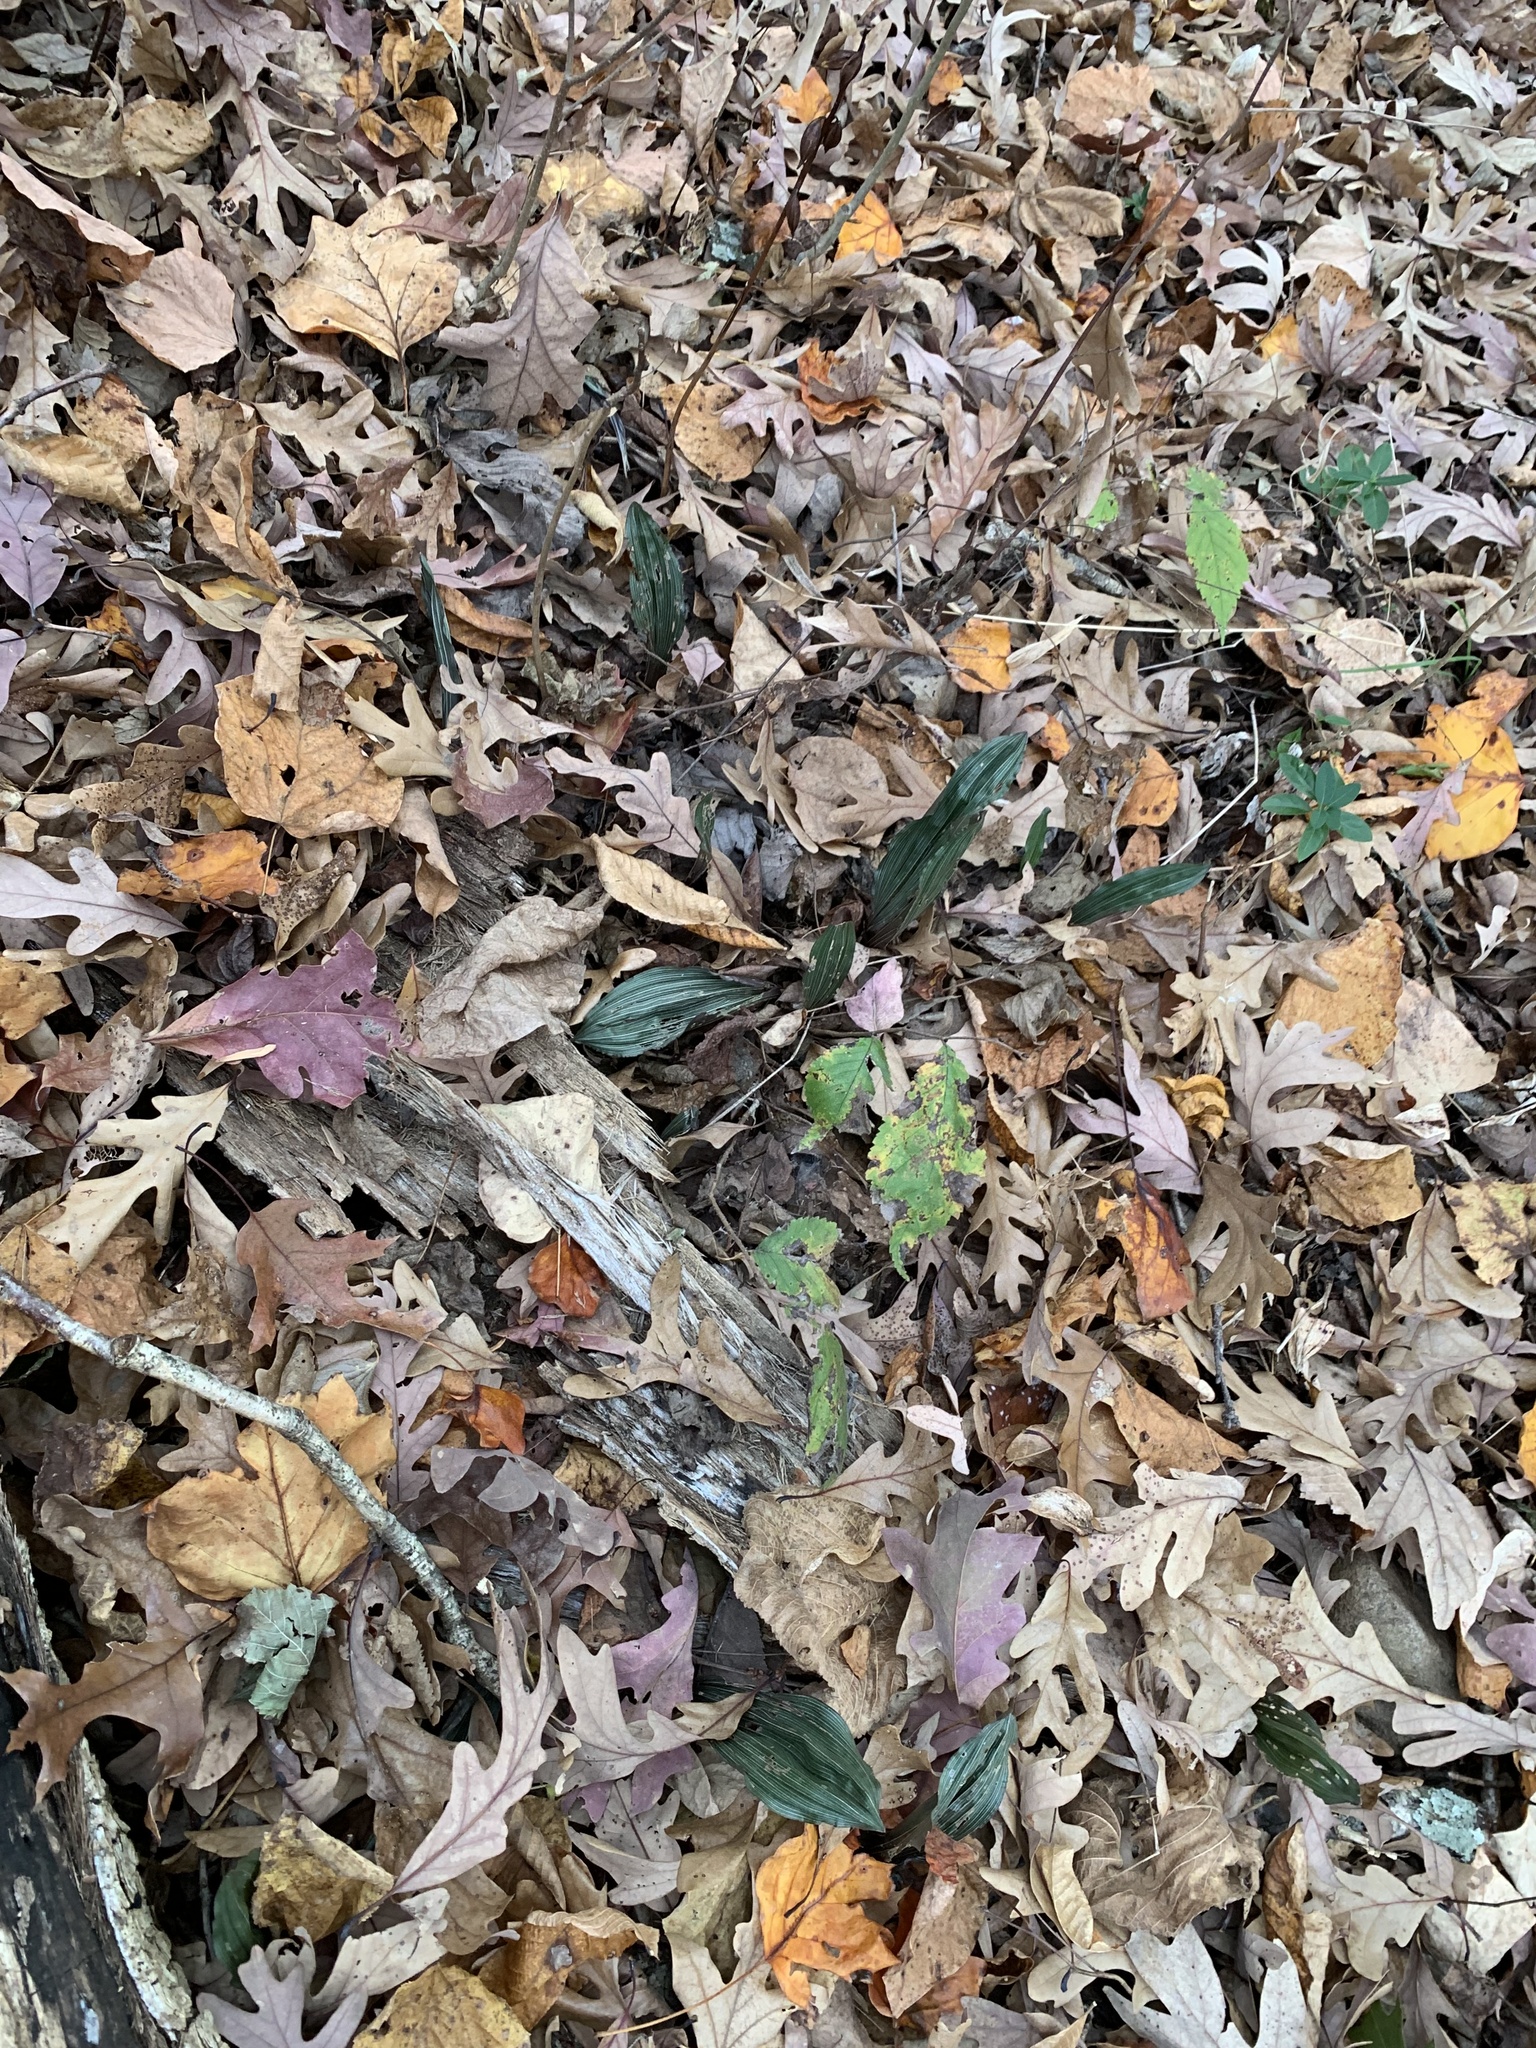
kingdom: Plantae
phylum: Tracheophyta
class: Liliopsida
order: Asparagales
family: Orchidaceae
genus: Aplectrum
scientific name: Aplectrum hyemale
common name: Adam-and-eve
